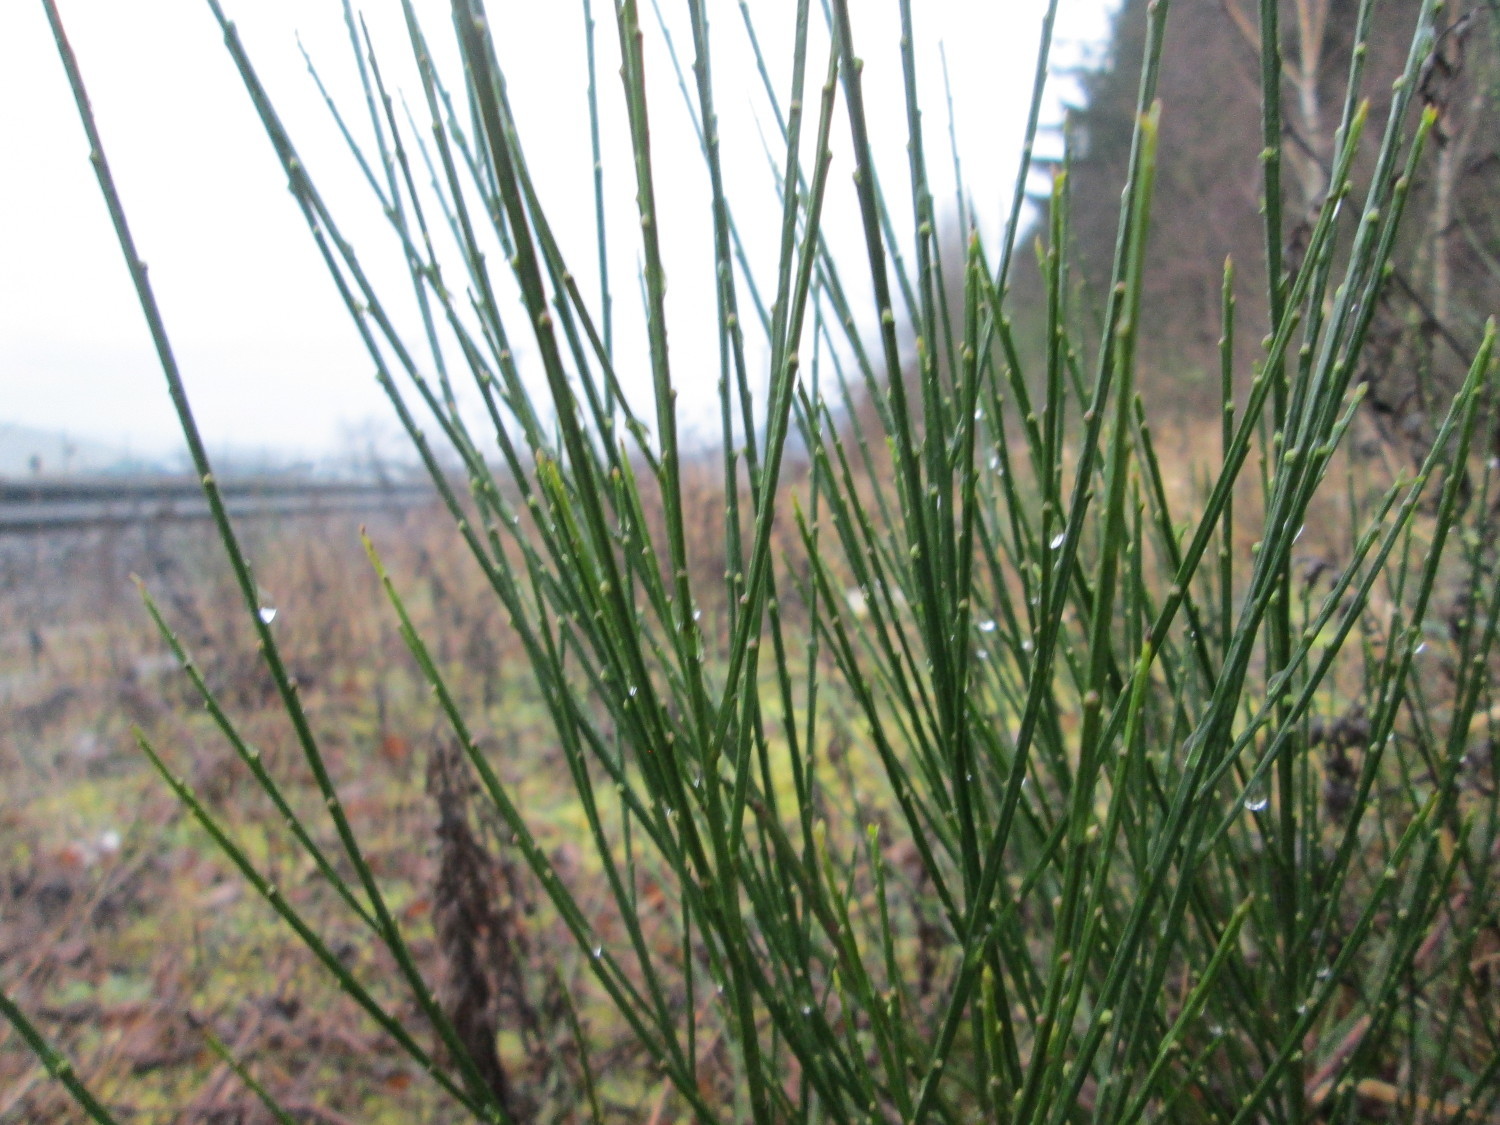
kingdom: Plantae
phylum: Tracheophyta
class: Magnoliopsida
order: Fabales
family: Fabaceae
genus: Cytisus
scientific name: Cytisus scoparius
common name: Scotch broom
